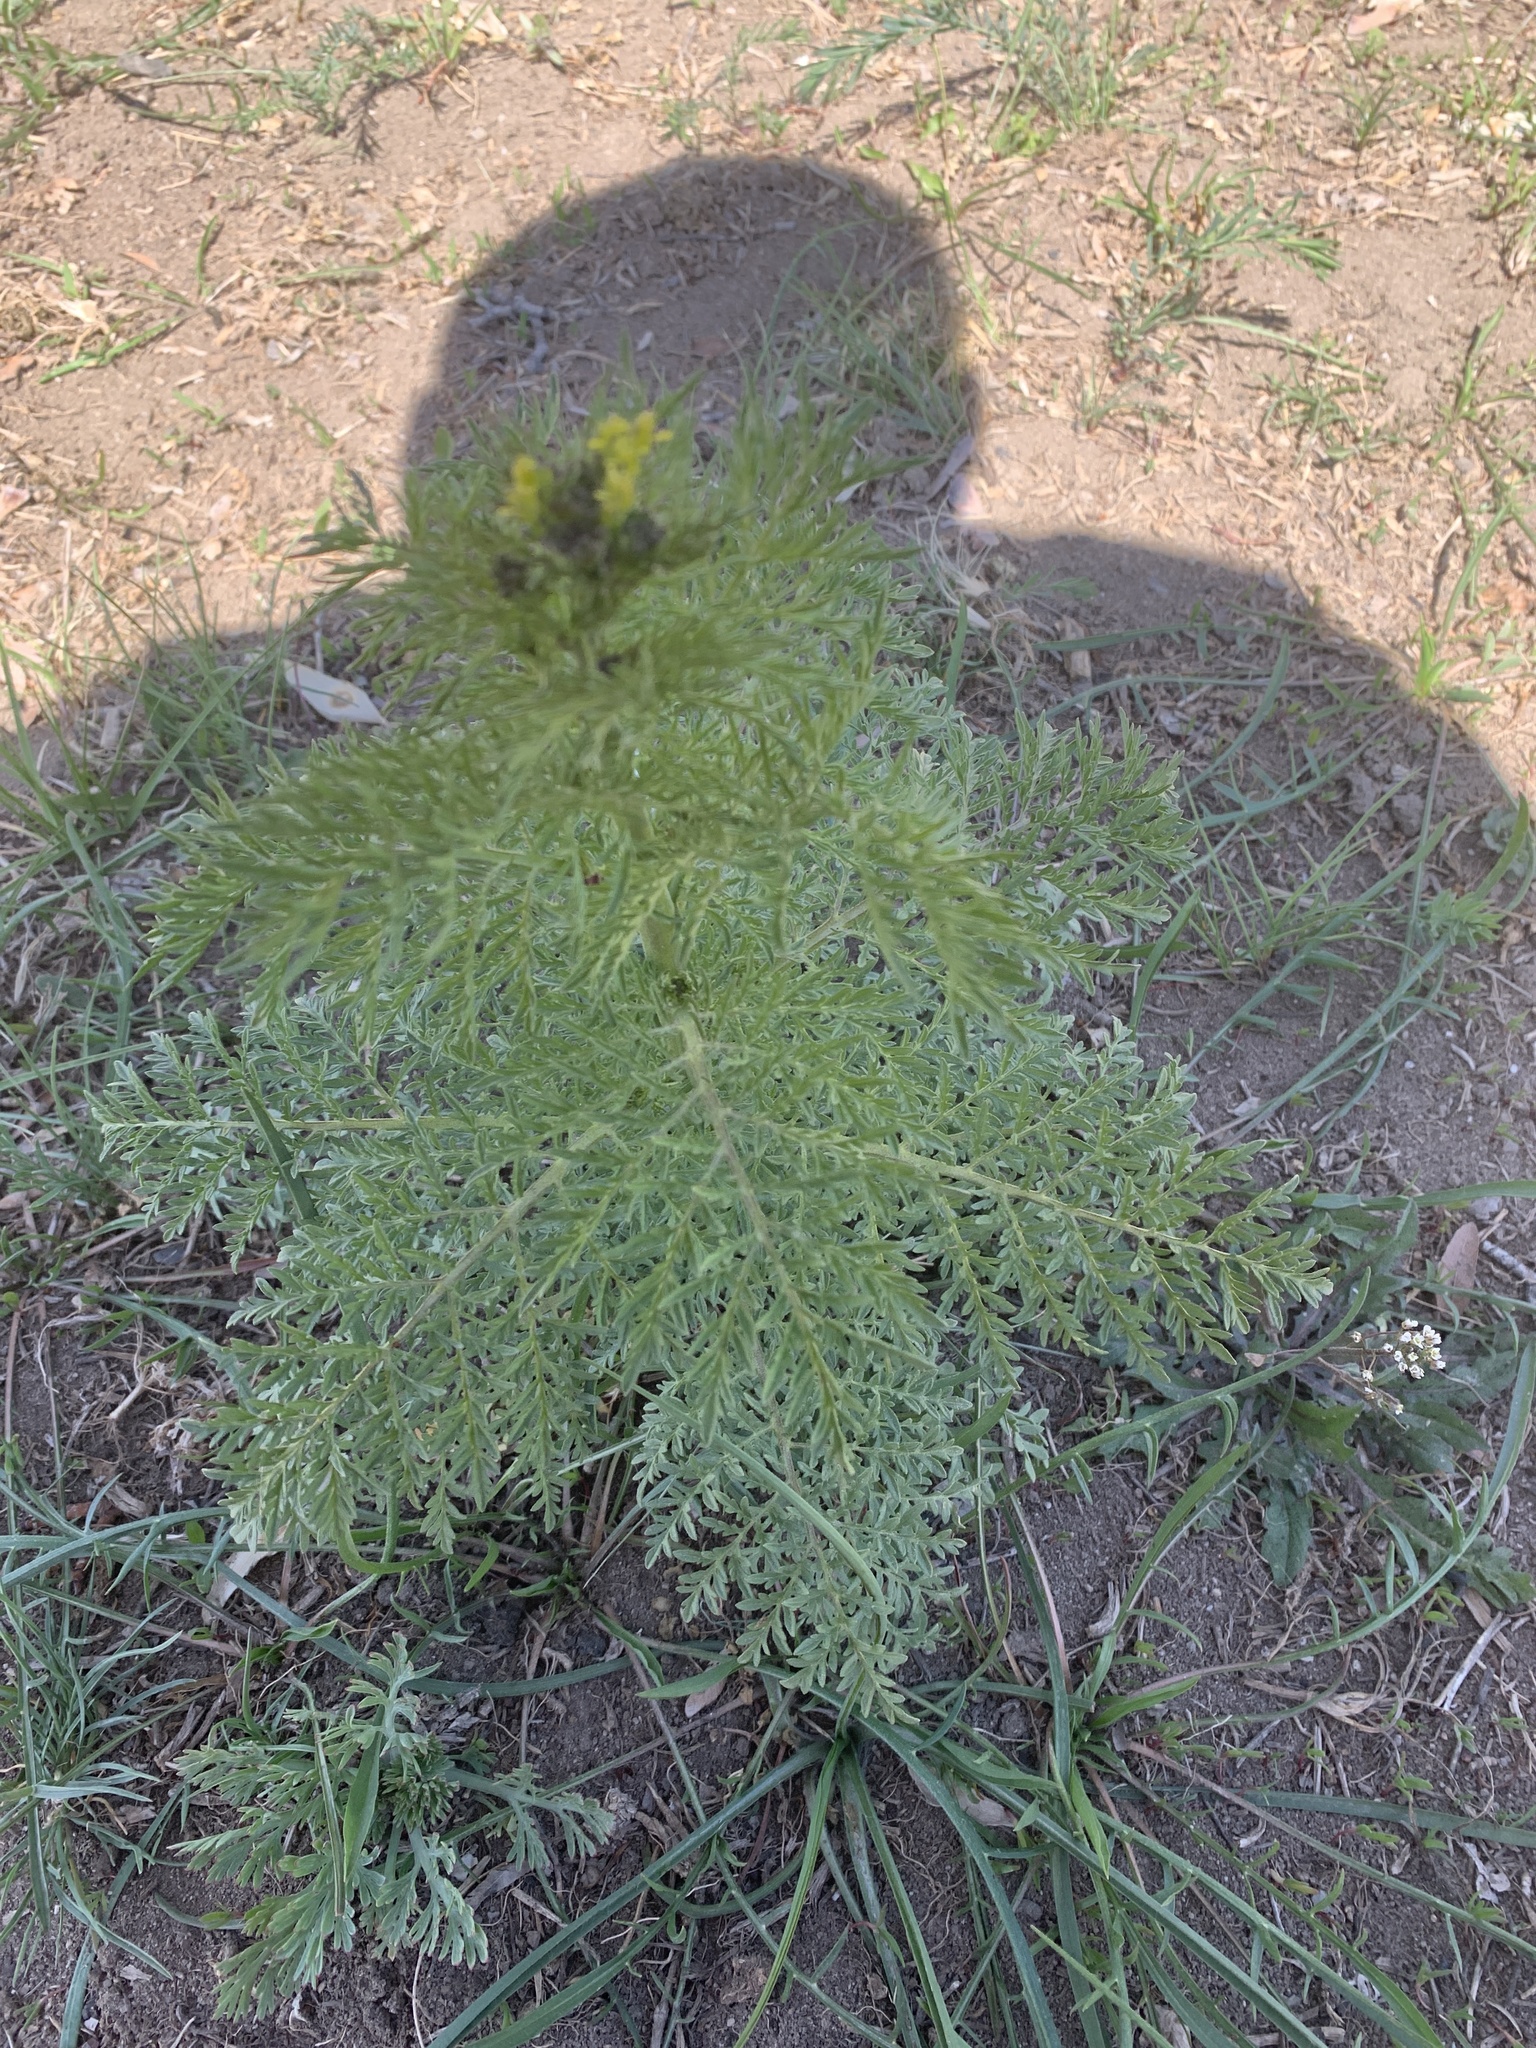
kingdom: Plantae
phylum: Tracheophyta
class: Magnoliopsida
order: Brassicales
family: Brassicaceae
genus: Descurainia
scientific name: Descurainia sophia
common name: Flixweed
